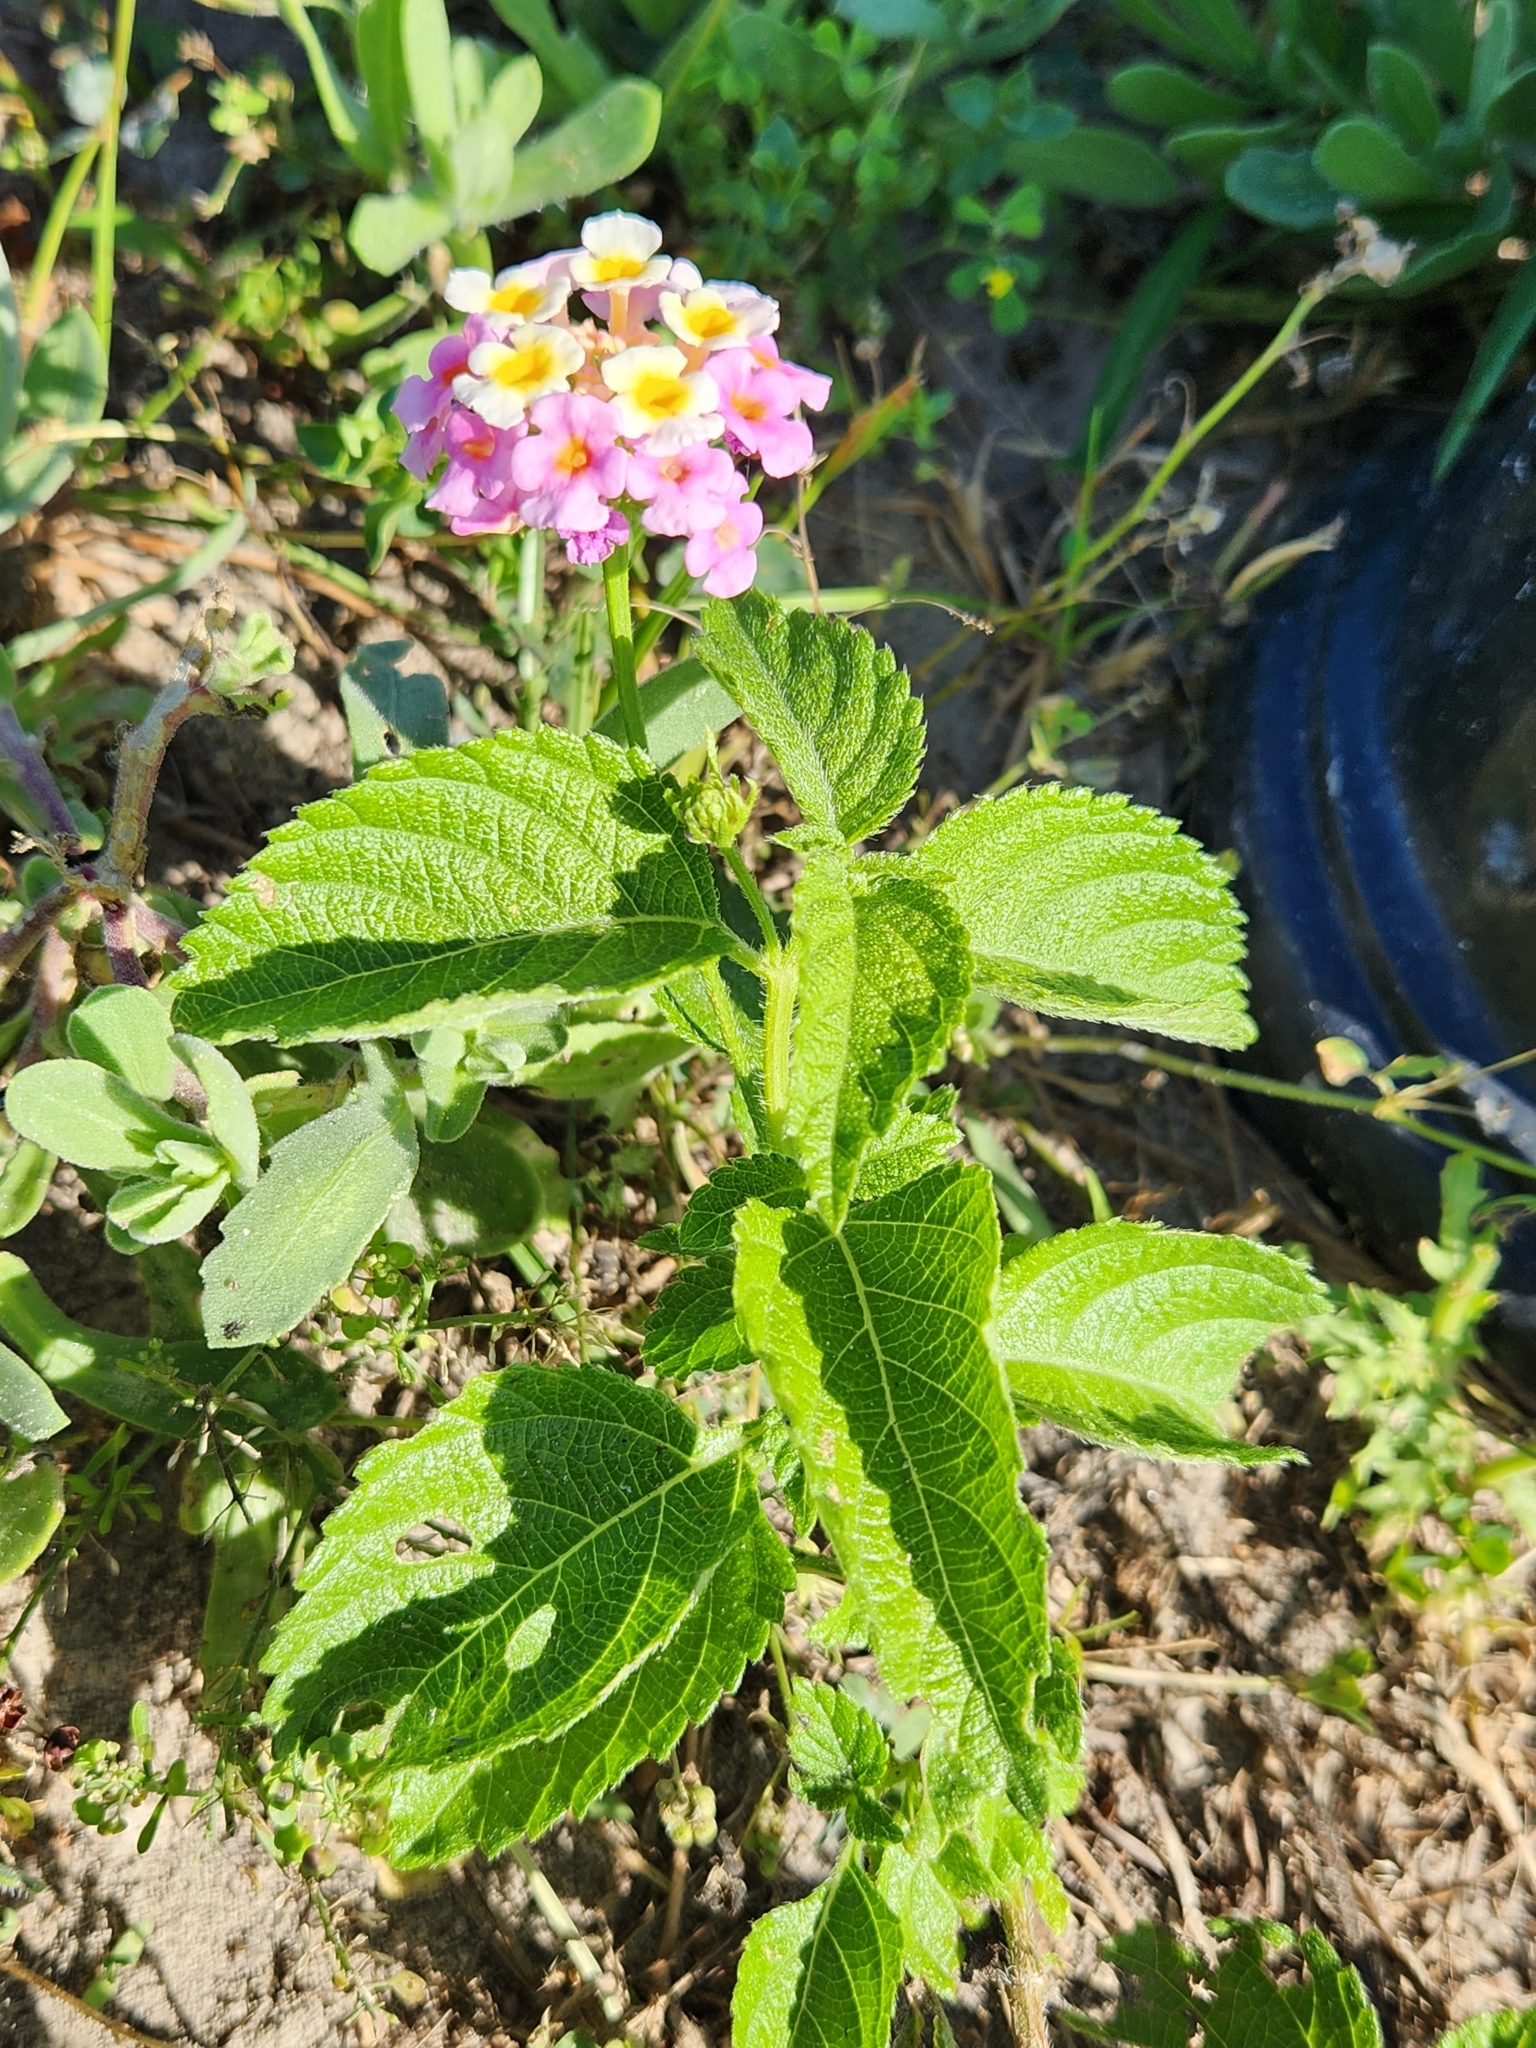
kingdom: Plantae
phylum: Tracheophyta
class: Magnoliopsida
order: Lamiales
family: Verbenaceae
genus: Lantana
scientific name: Lantana strigocamara
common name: Lantana
